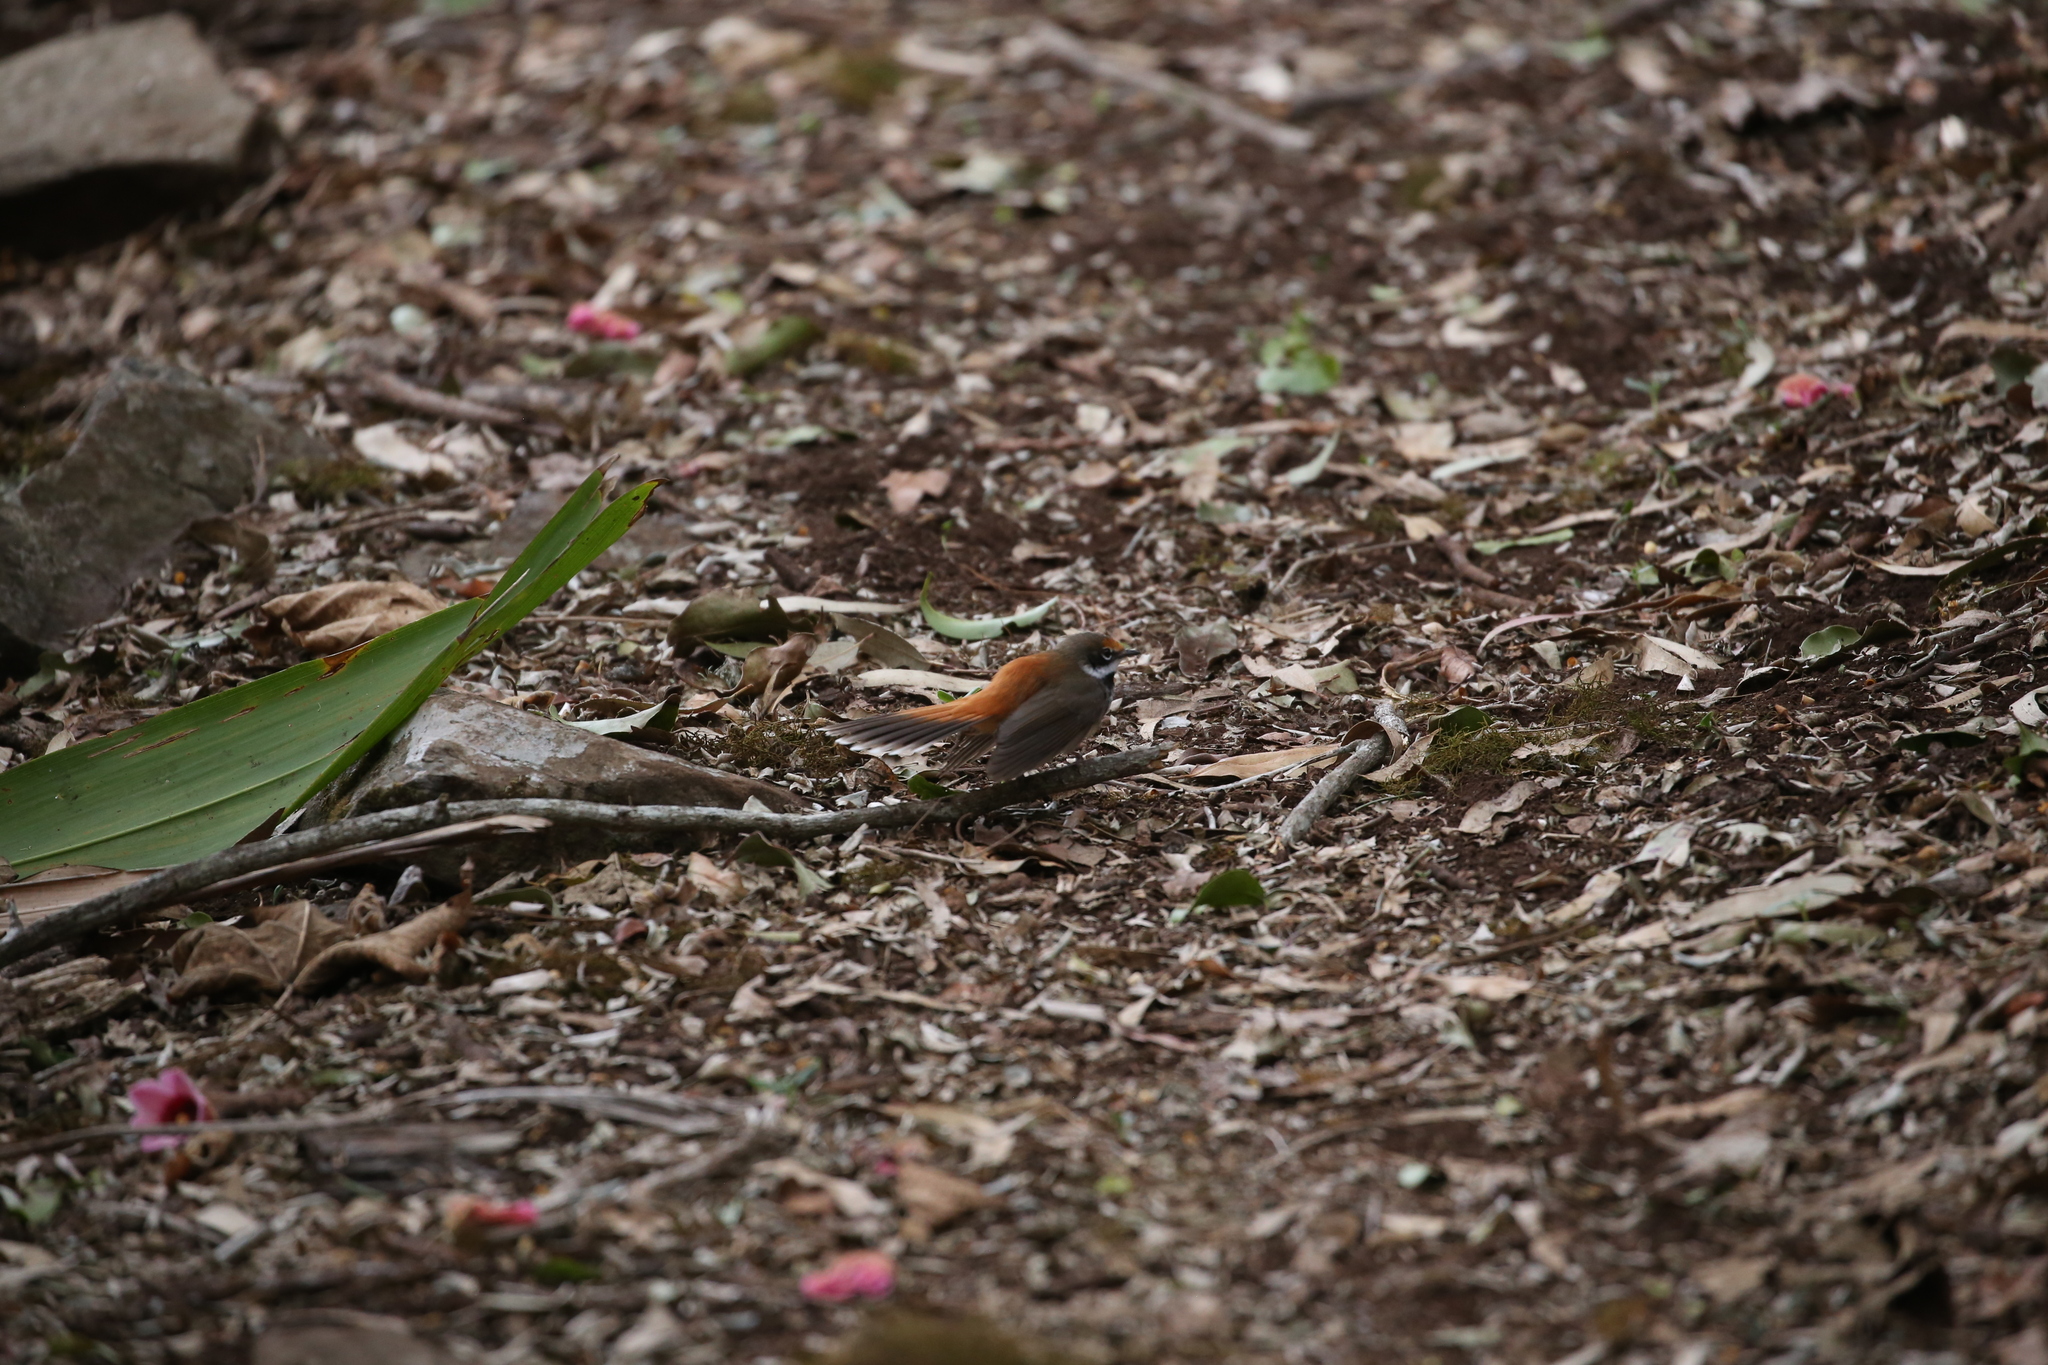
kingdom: Animalia
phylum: Chordata
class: Aves
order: Passeriformes
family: Rhipiduridae
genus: Rhipidura
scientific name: Rhipidura rufifrons
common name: Rufous fantail
